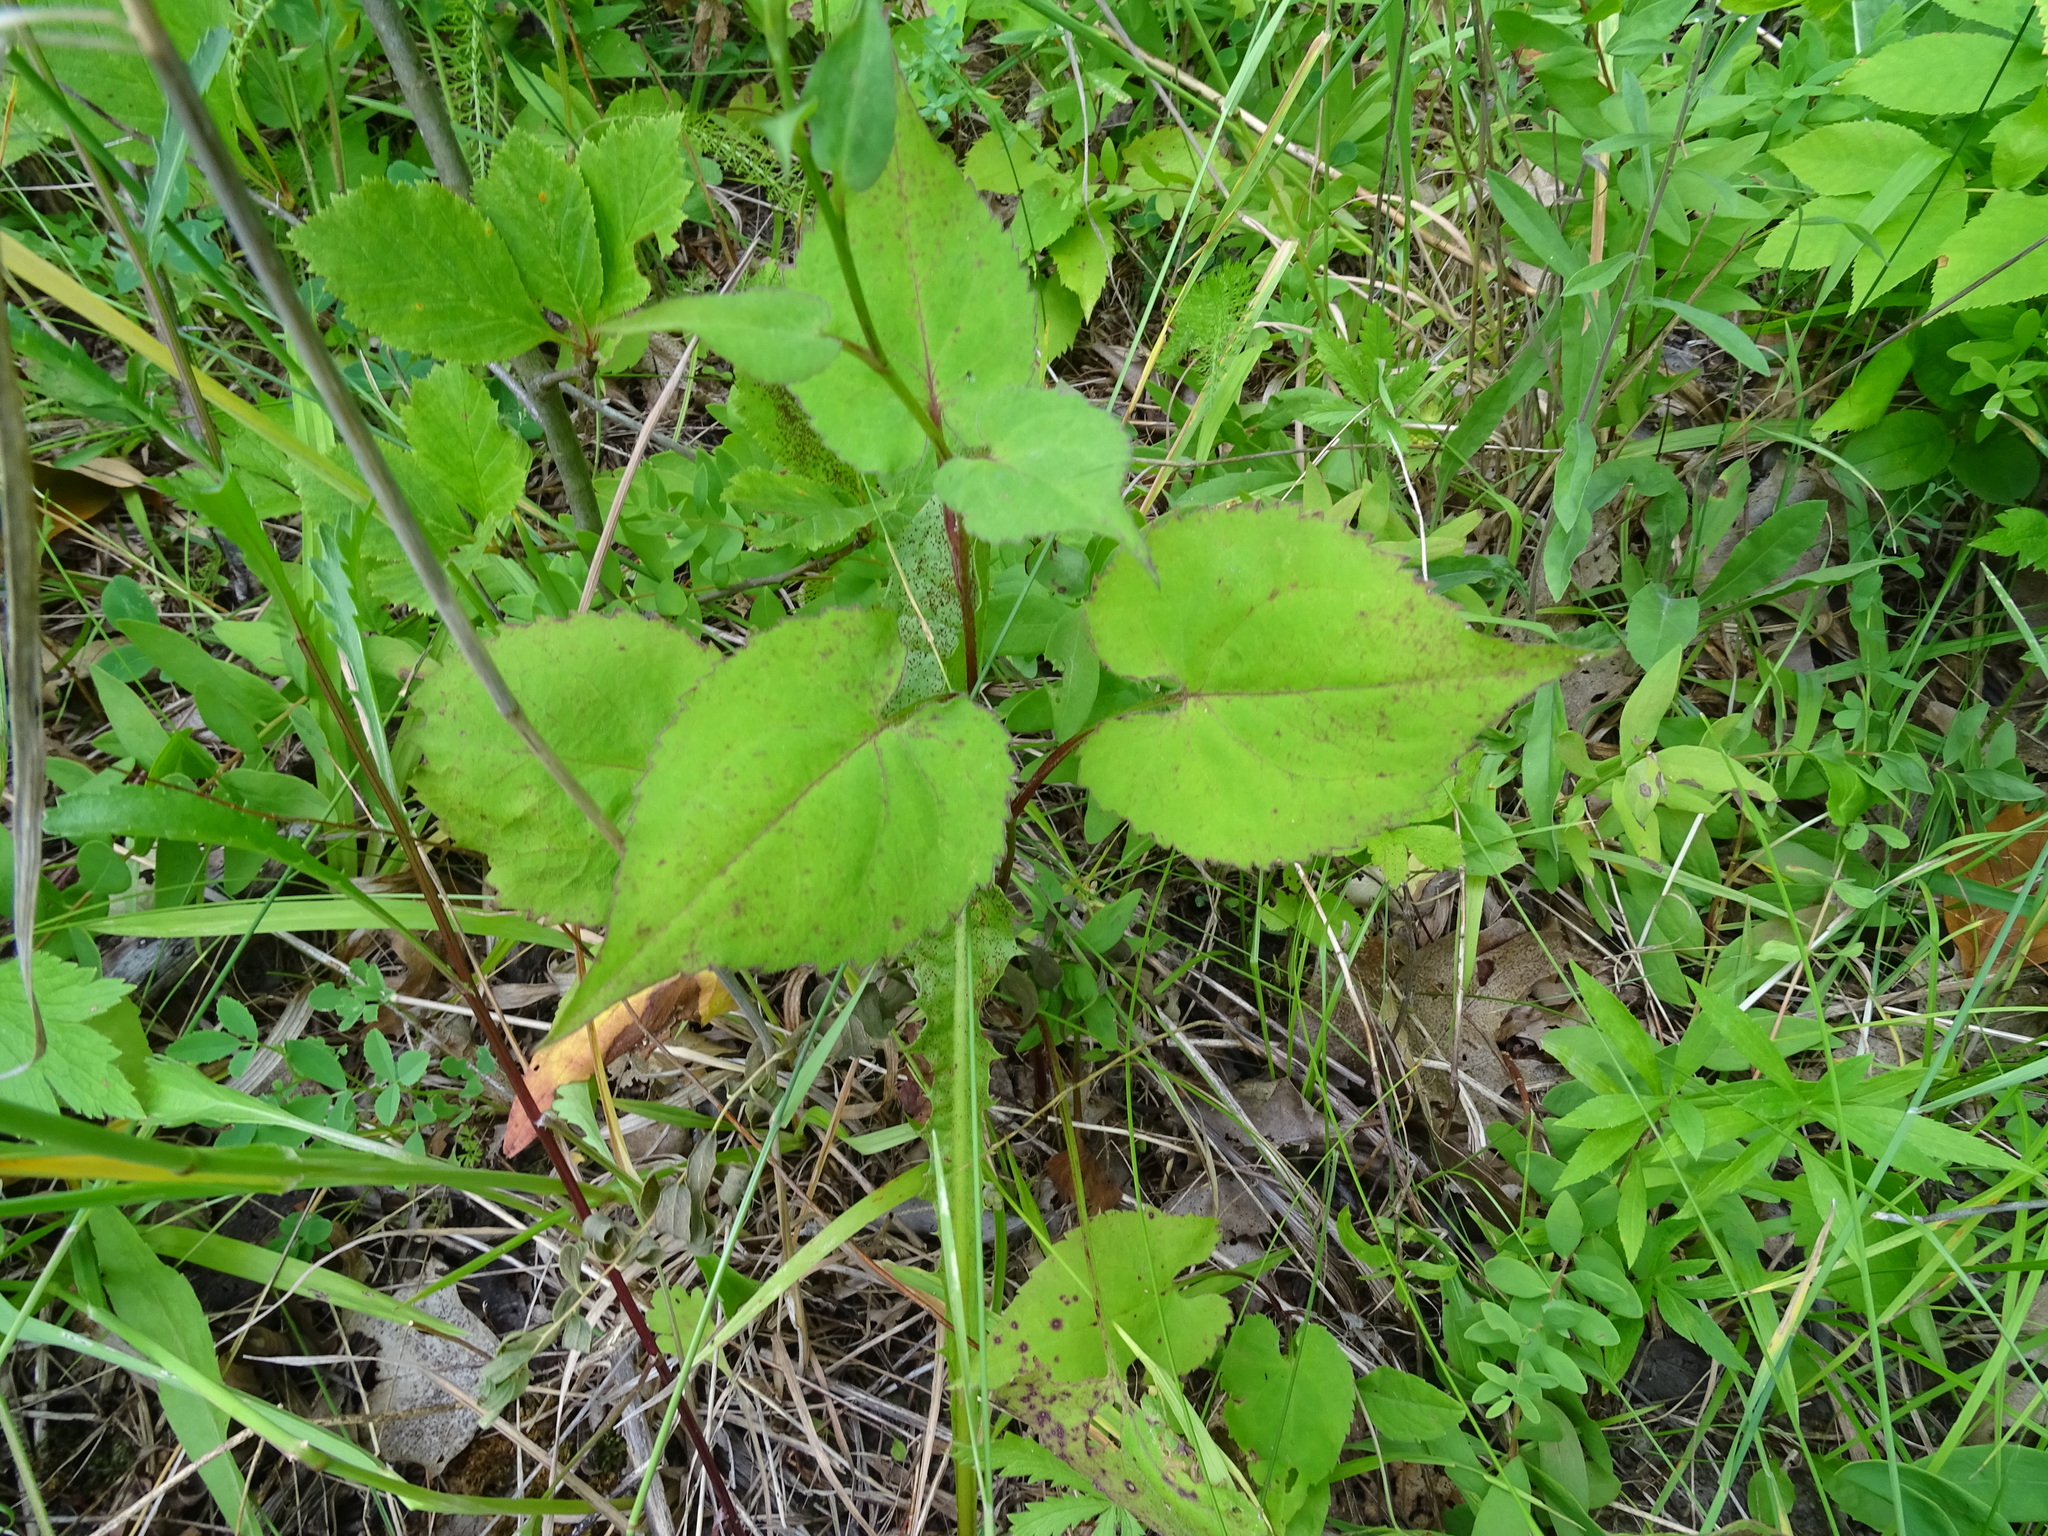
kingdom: Plantae
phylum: Tracheophyta
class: Magnoliopsida
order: Asterales
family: Asteraceae
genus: Symphyotrichum
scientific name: Symphyotrichum cordifolium
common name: Beeweed
